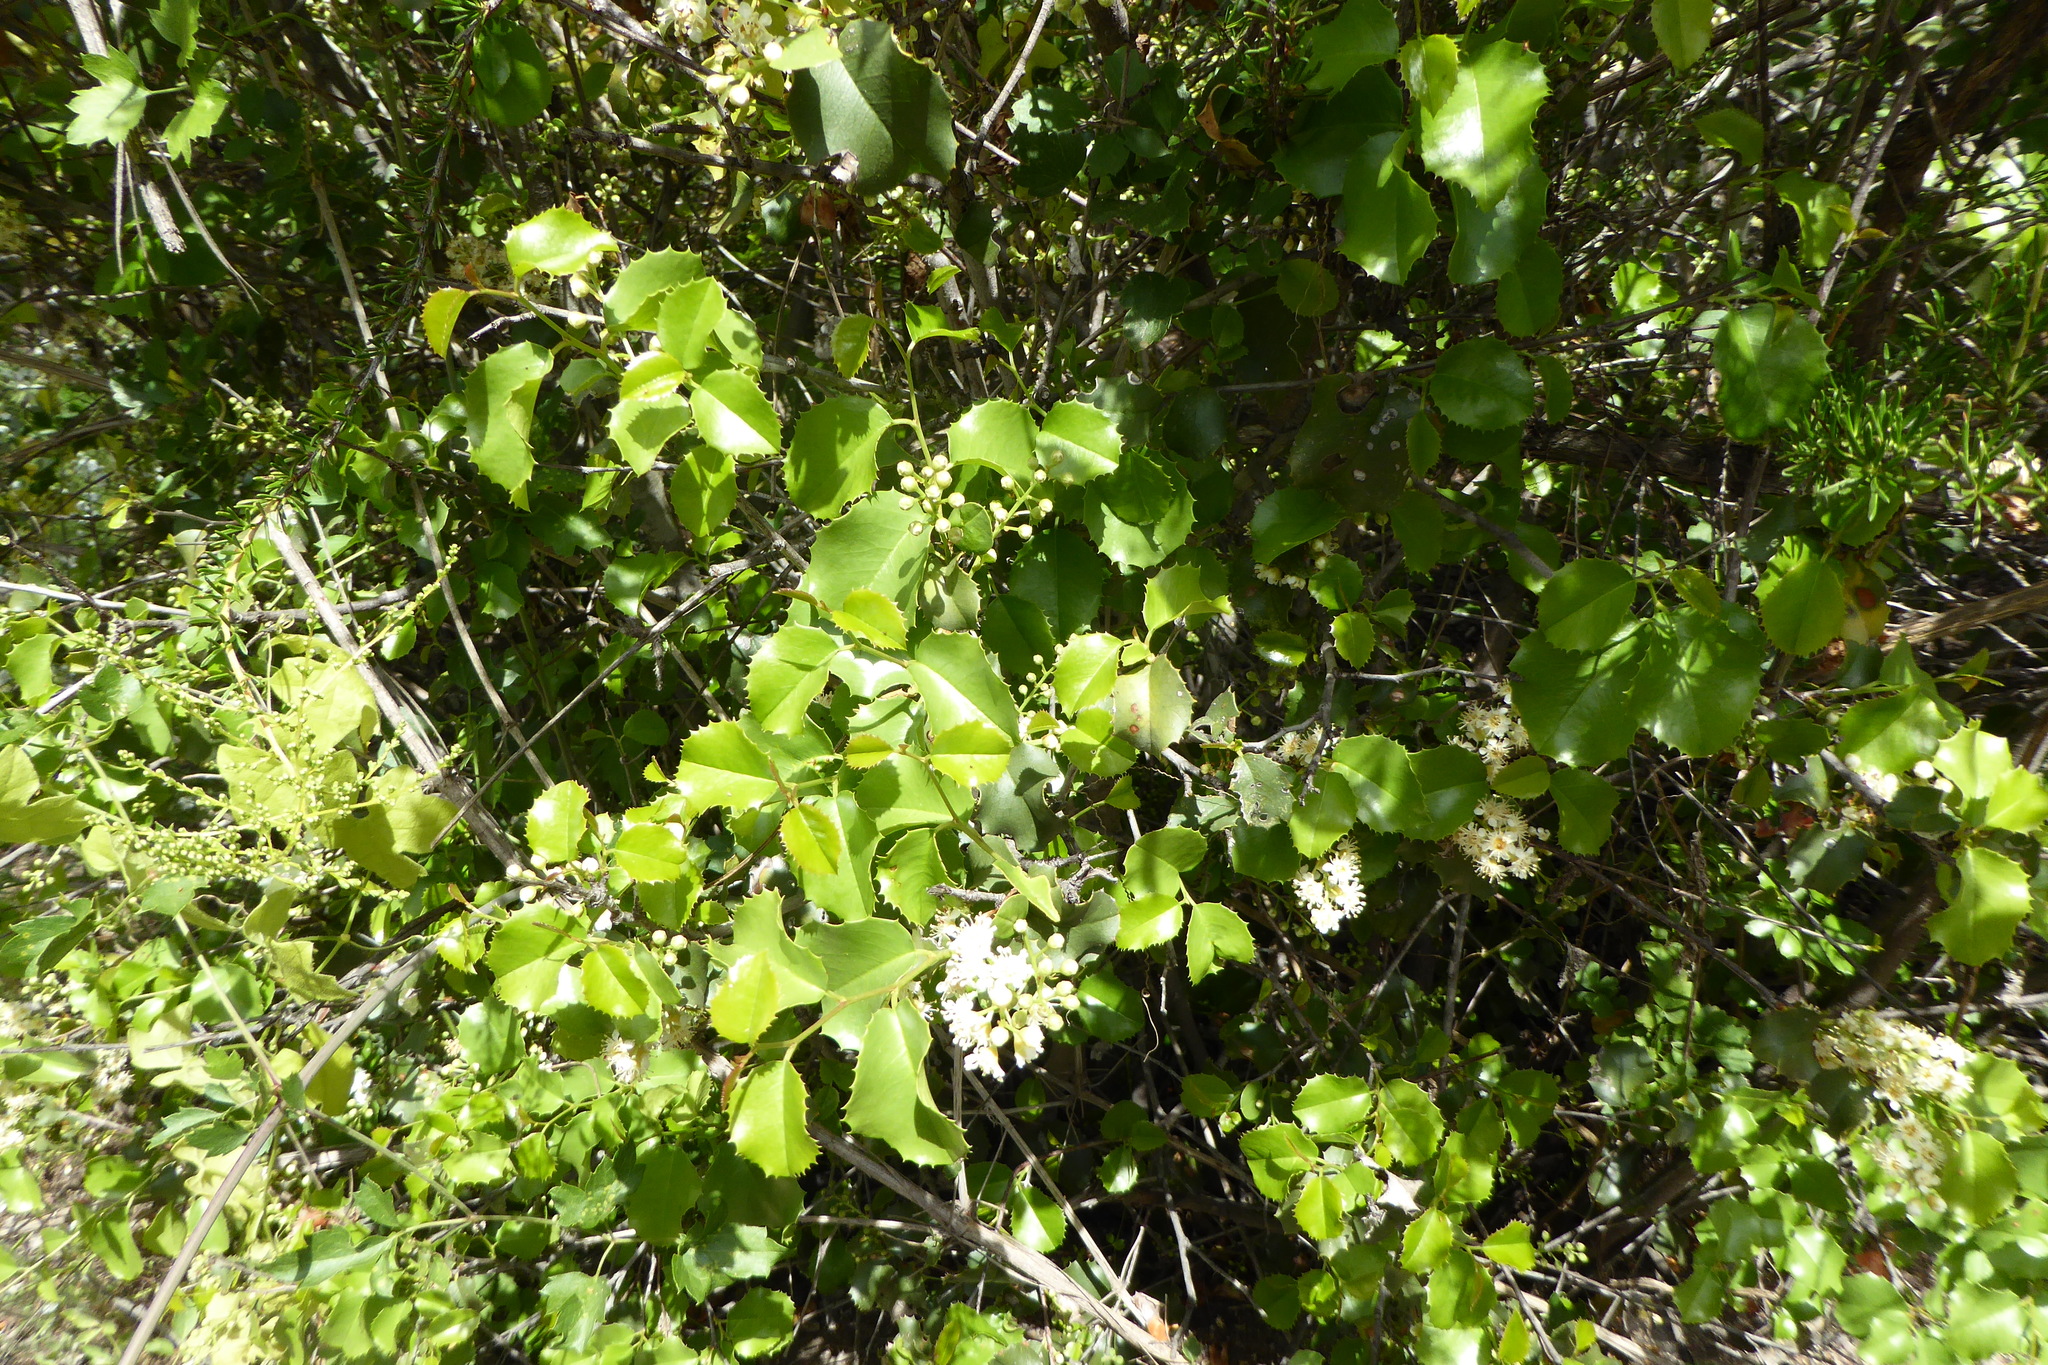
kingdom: Plantae
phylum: Tracheophyta
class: Magnoliopsida
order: Rosales
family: Rosaceae
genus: Prunus
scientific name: Prunus ilicifolia
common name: Hollyleaf cherry
